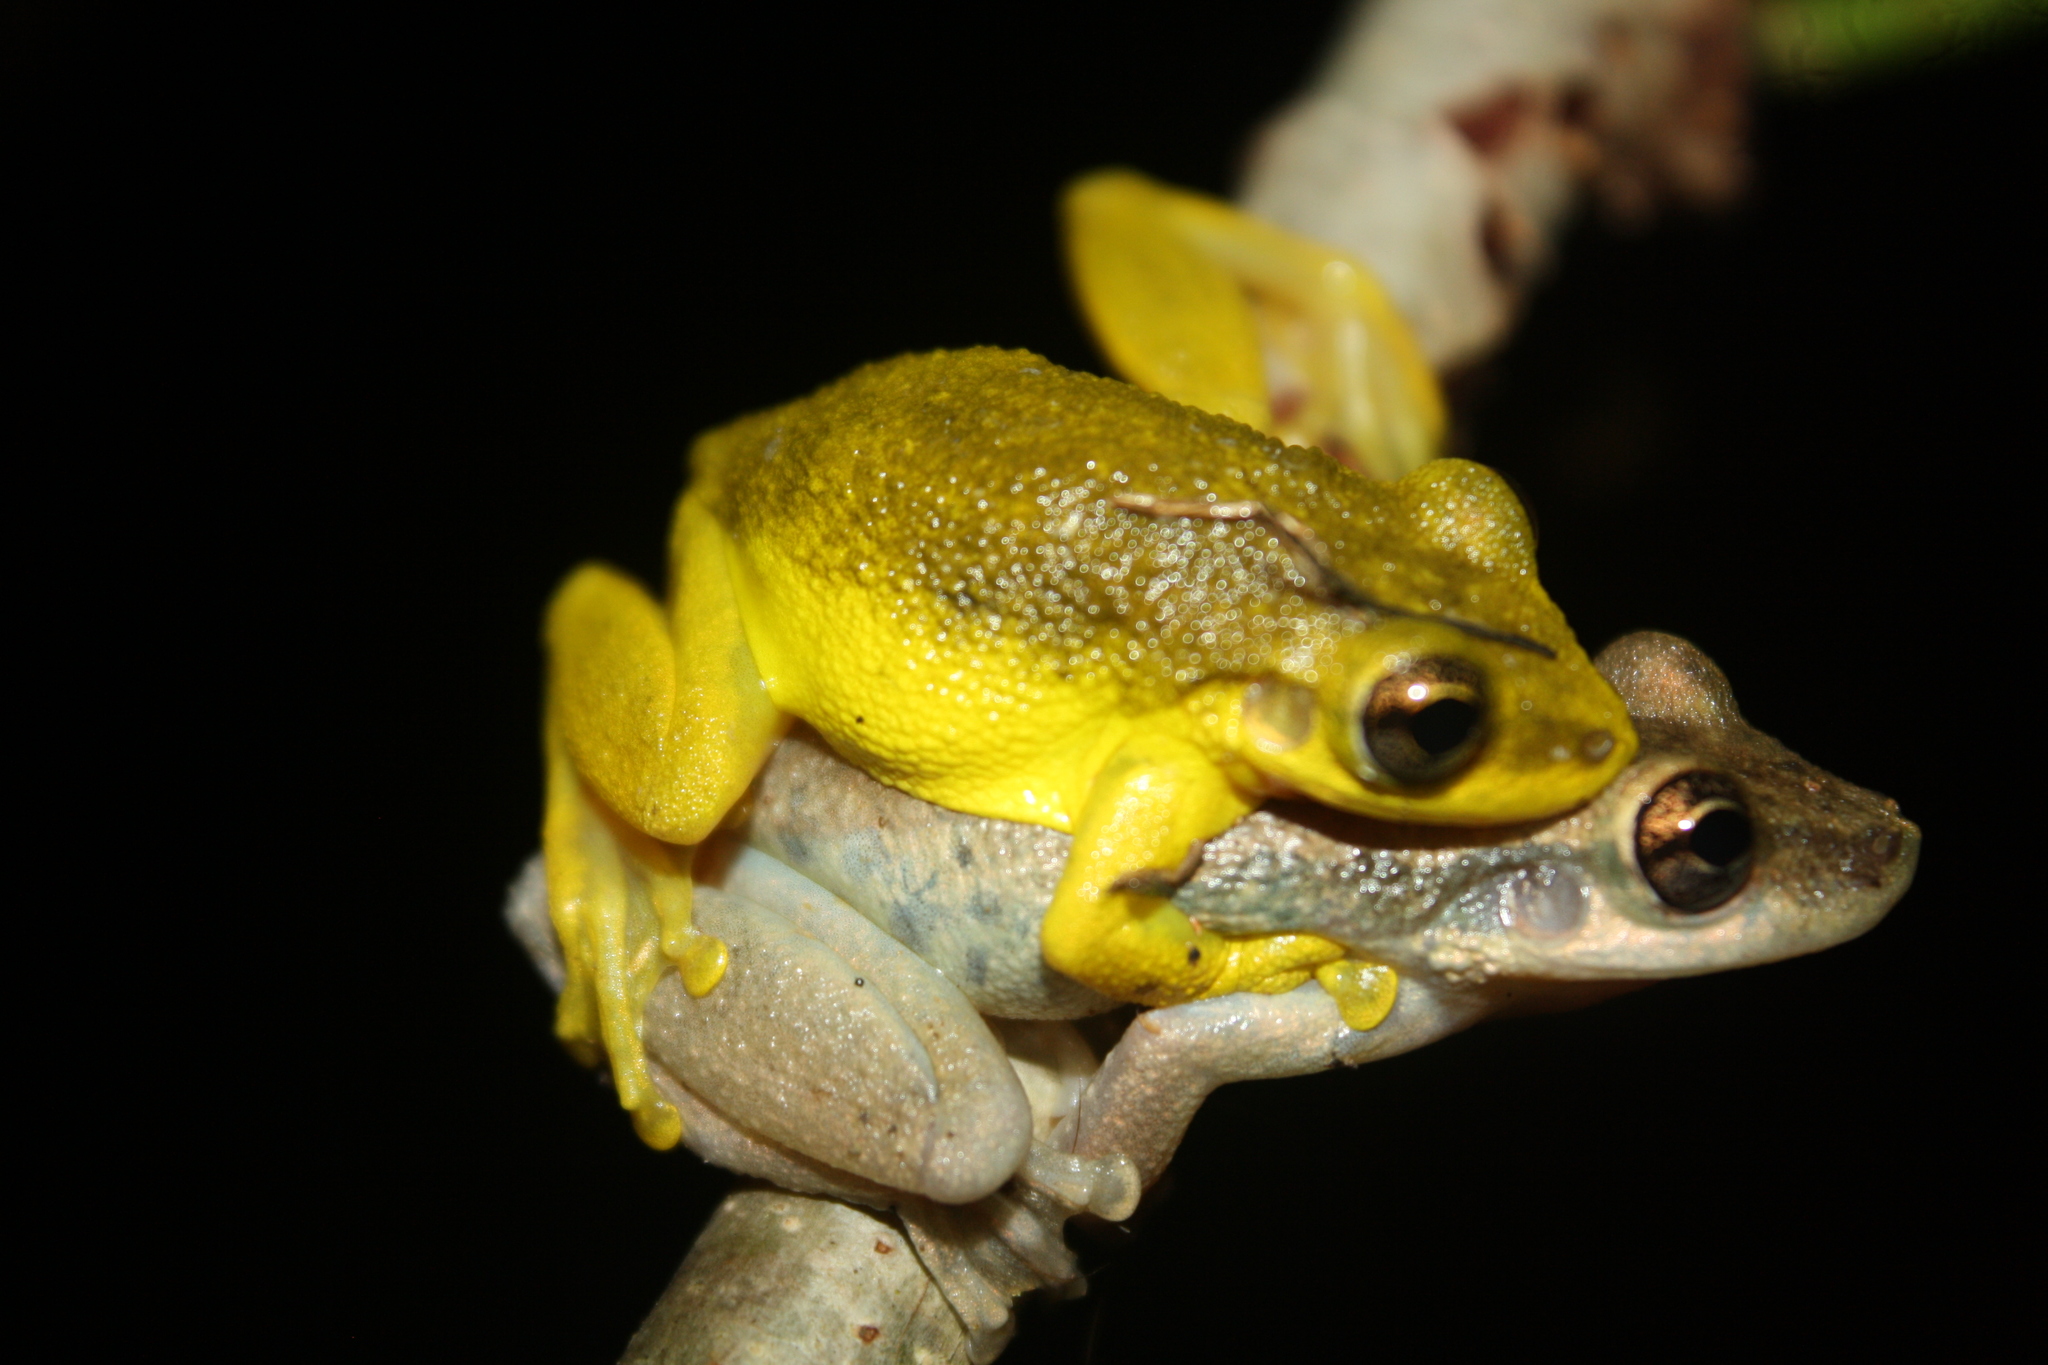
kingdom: Animalia
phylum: Chordata
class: Amphibia
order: Anura
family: Hylidae
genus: Scinax
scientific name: Scinax ruber
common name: Red snouted treefrog
